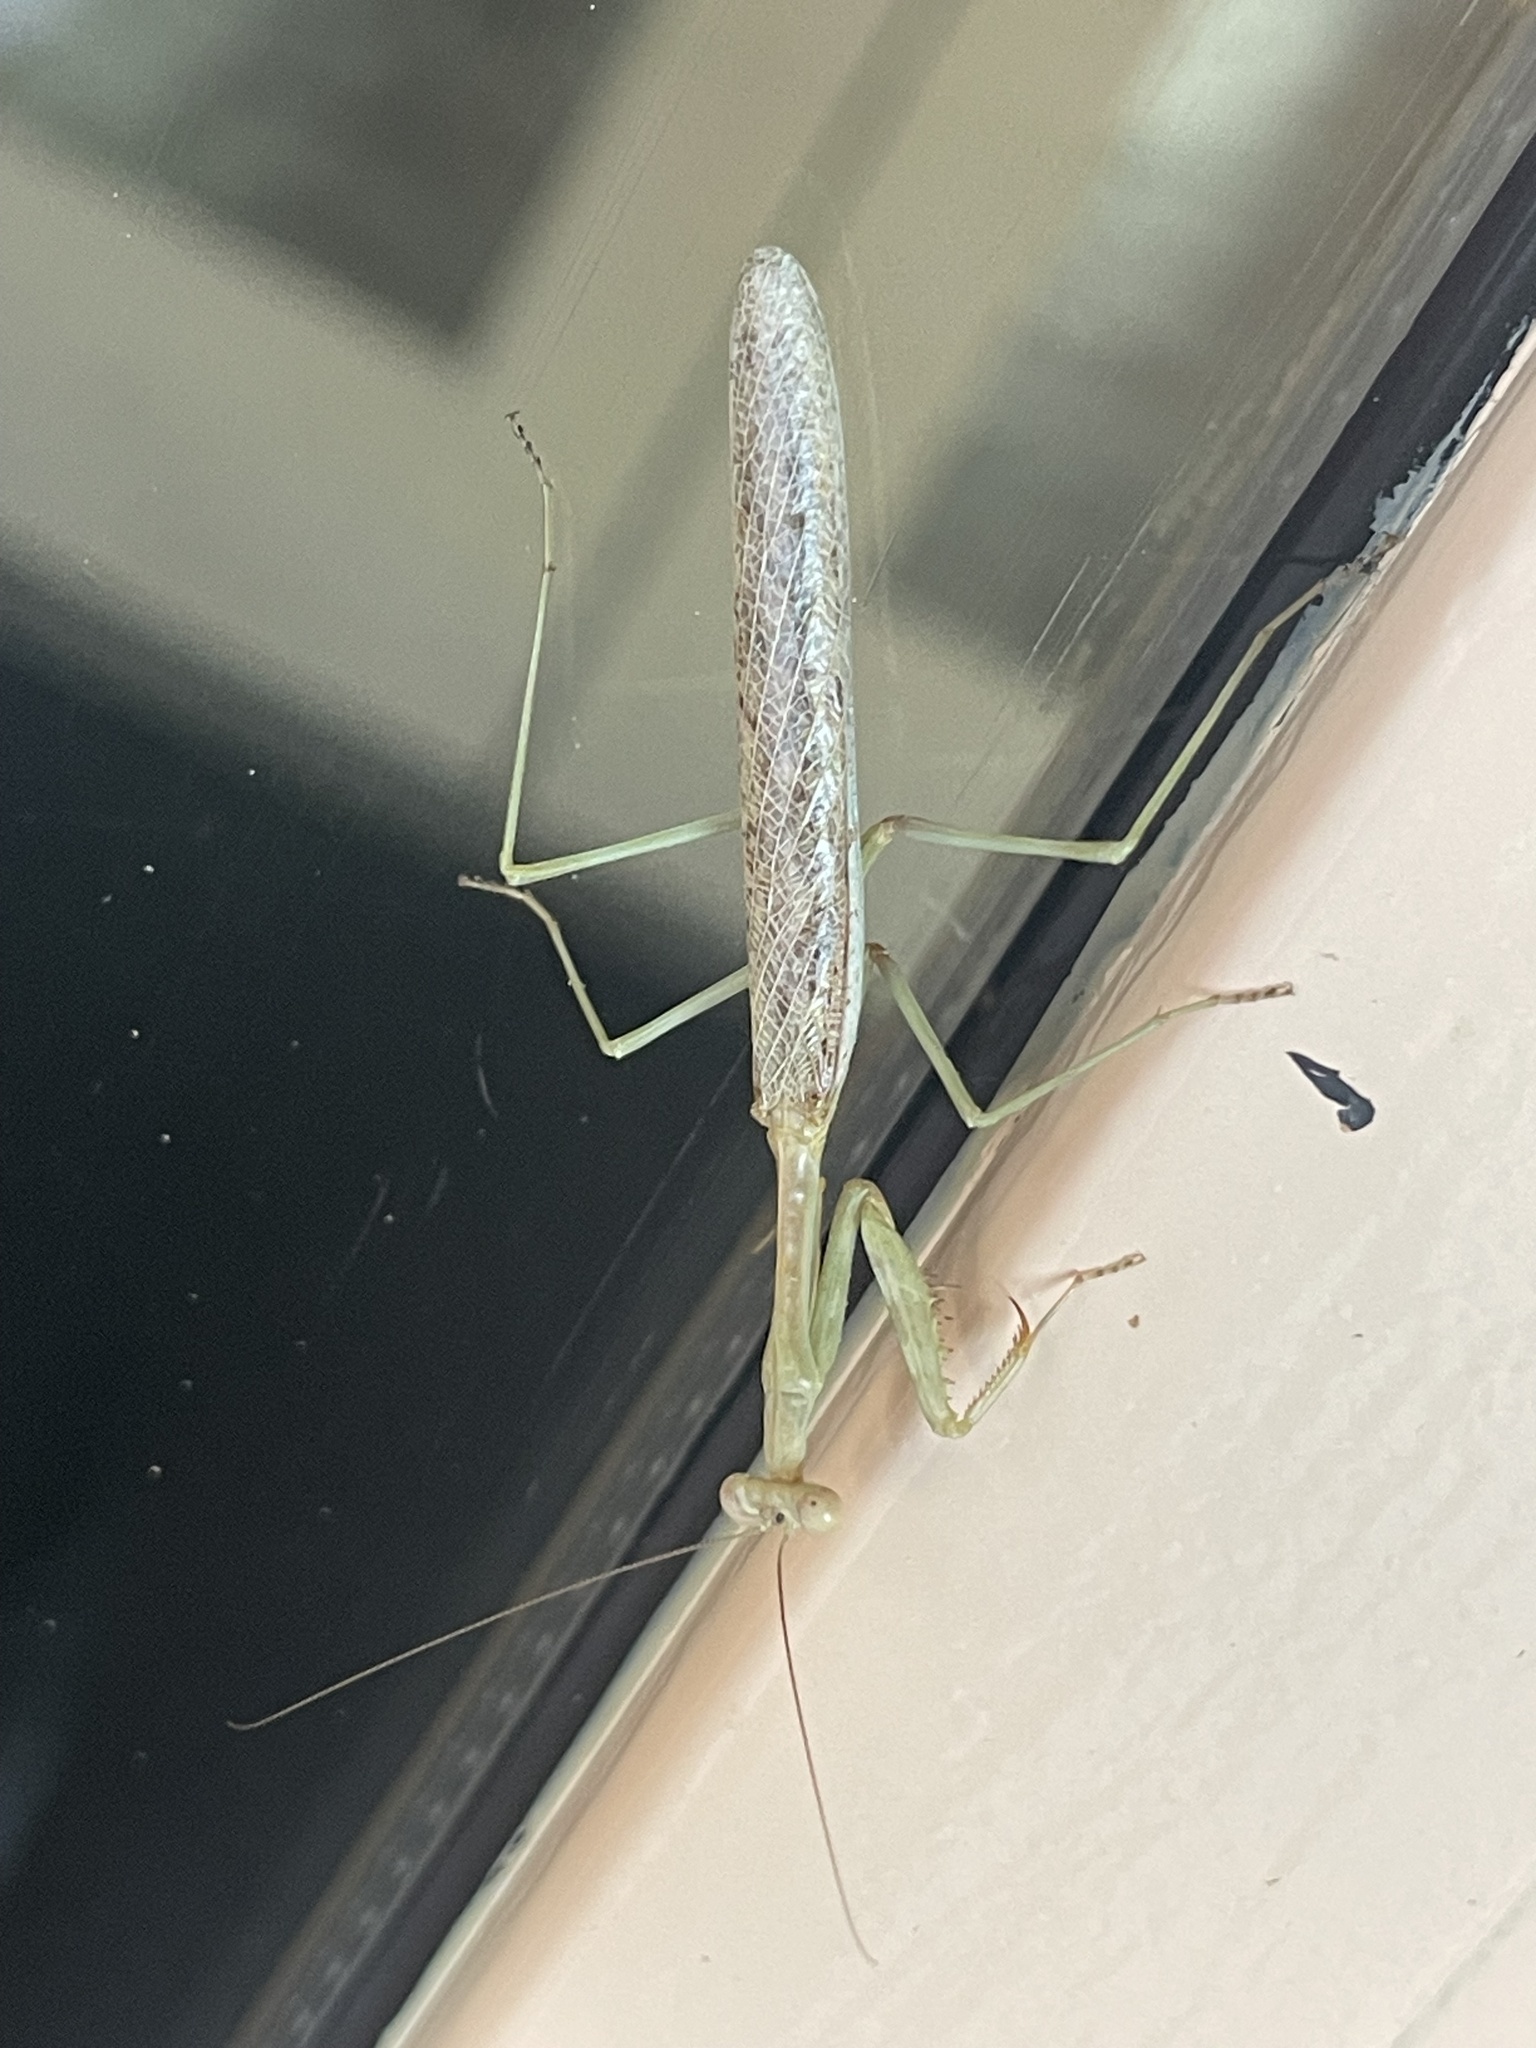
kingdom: Animalia
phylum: Arthropoda
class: Insecta
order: Mantodea
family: Mantidae
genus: Stagmomantis
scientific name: Stagmomantis californica
